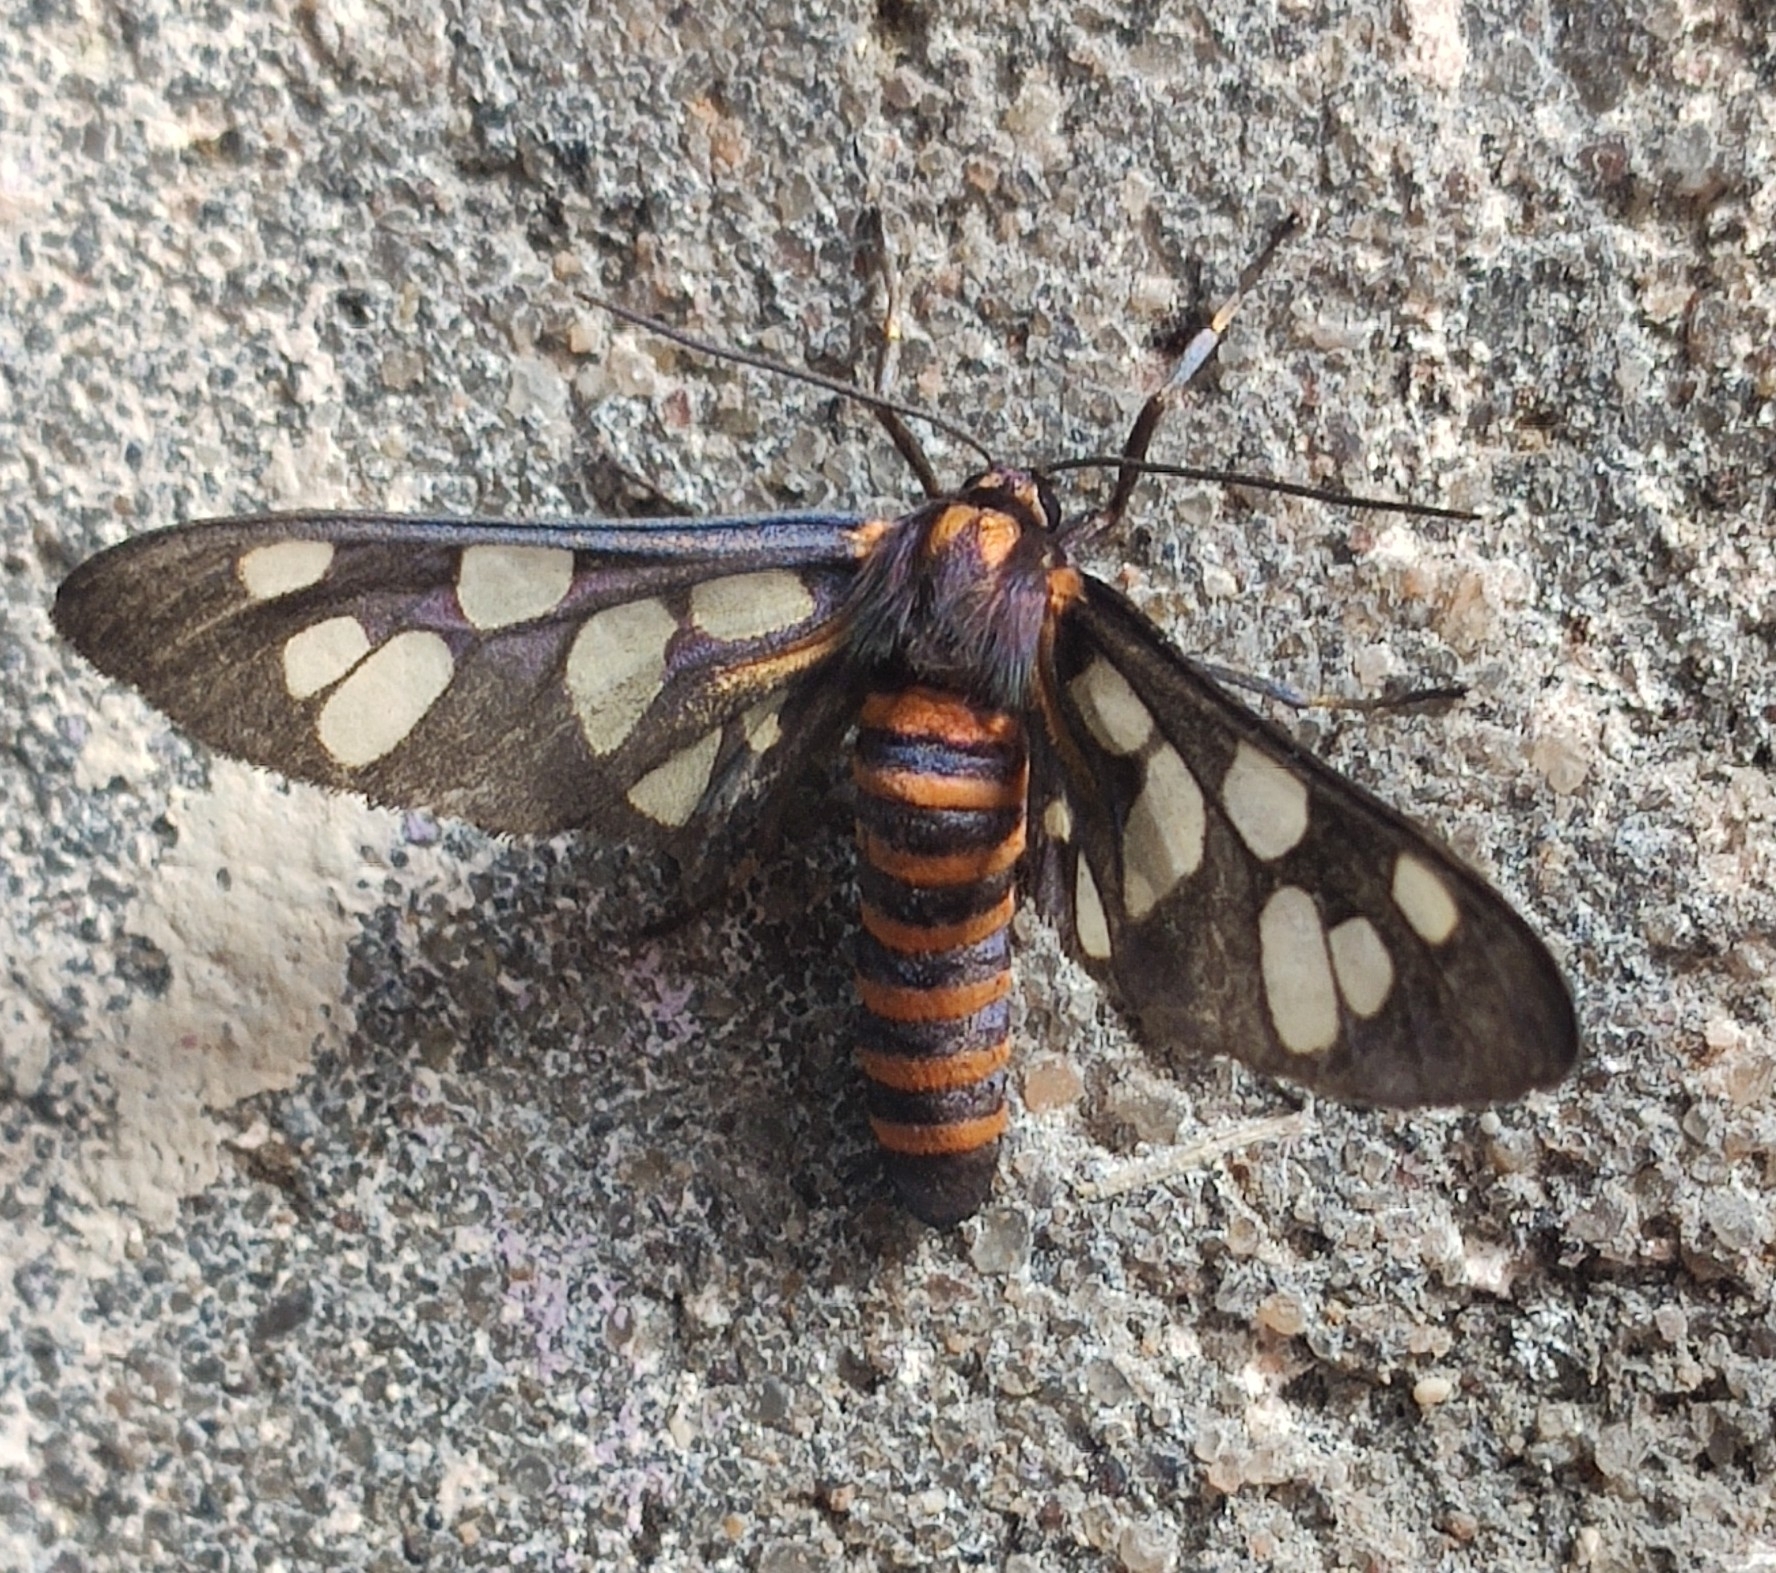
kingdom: Animalia
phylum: Arthropoda
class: Insecta
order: Lepidoptera
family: Erebidae
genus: Amata
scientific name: Amata passalis
